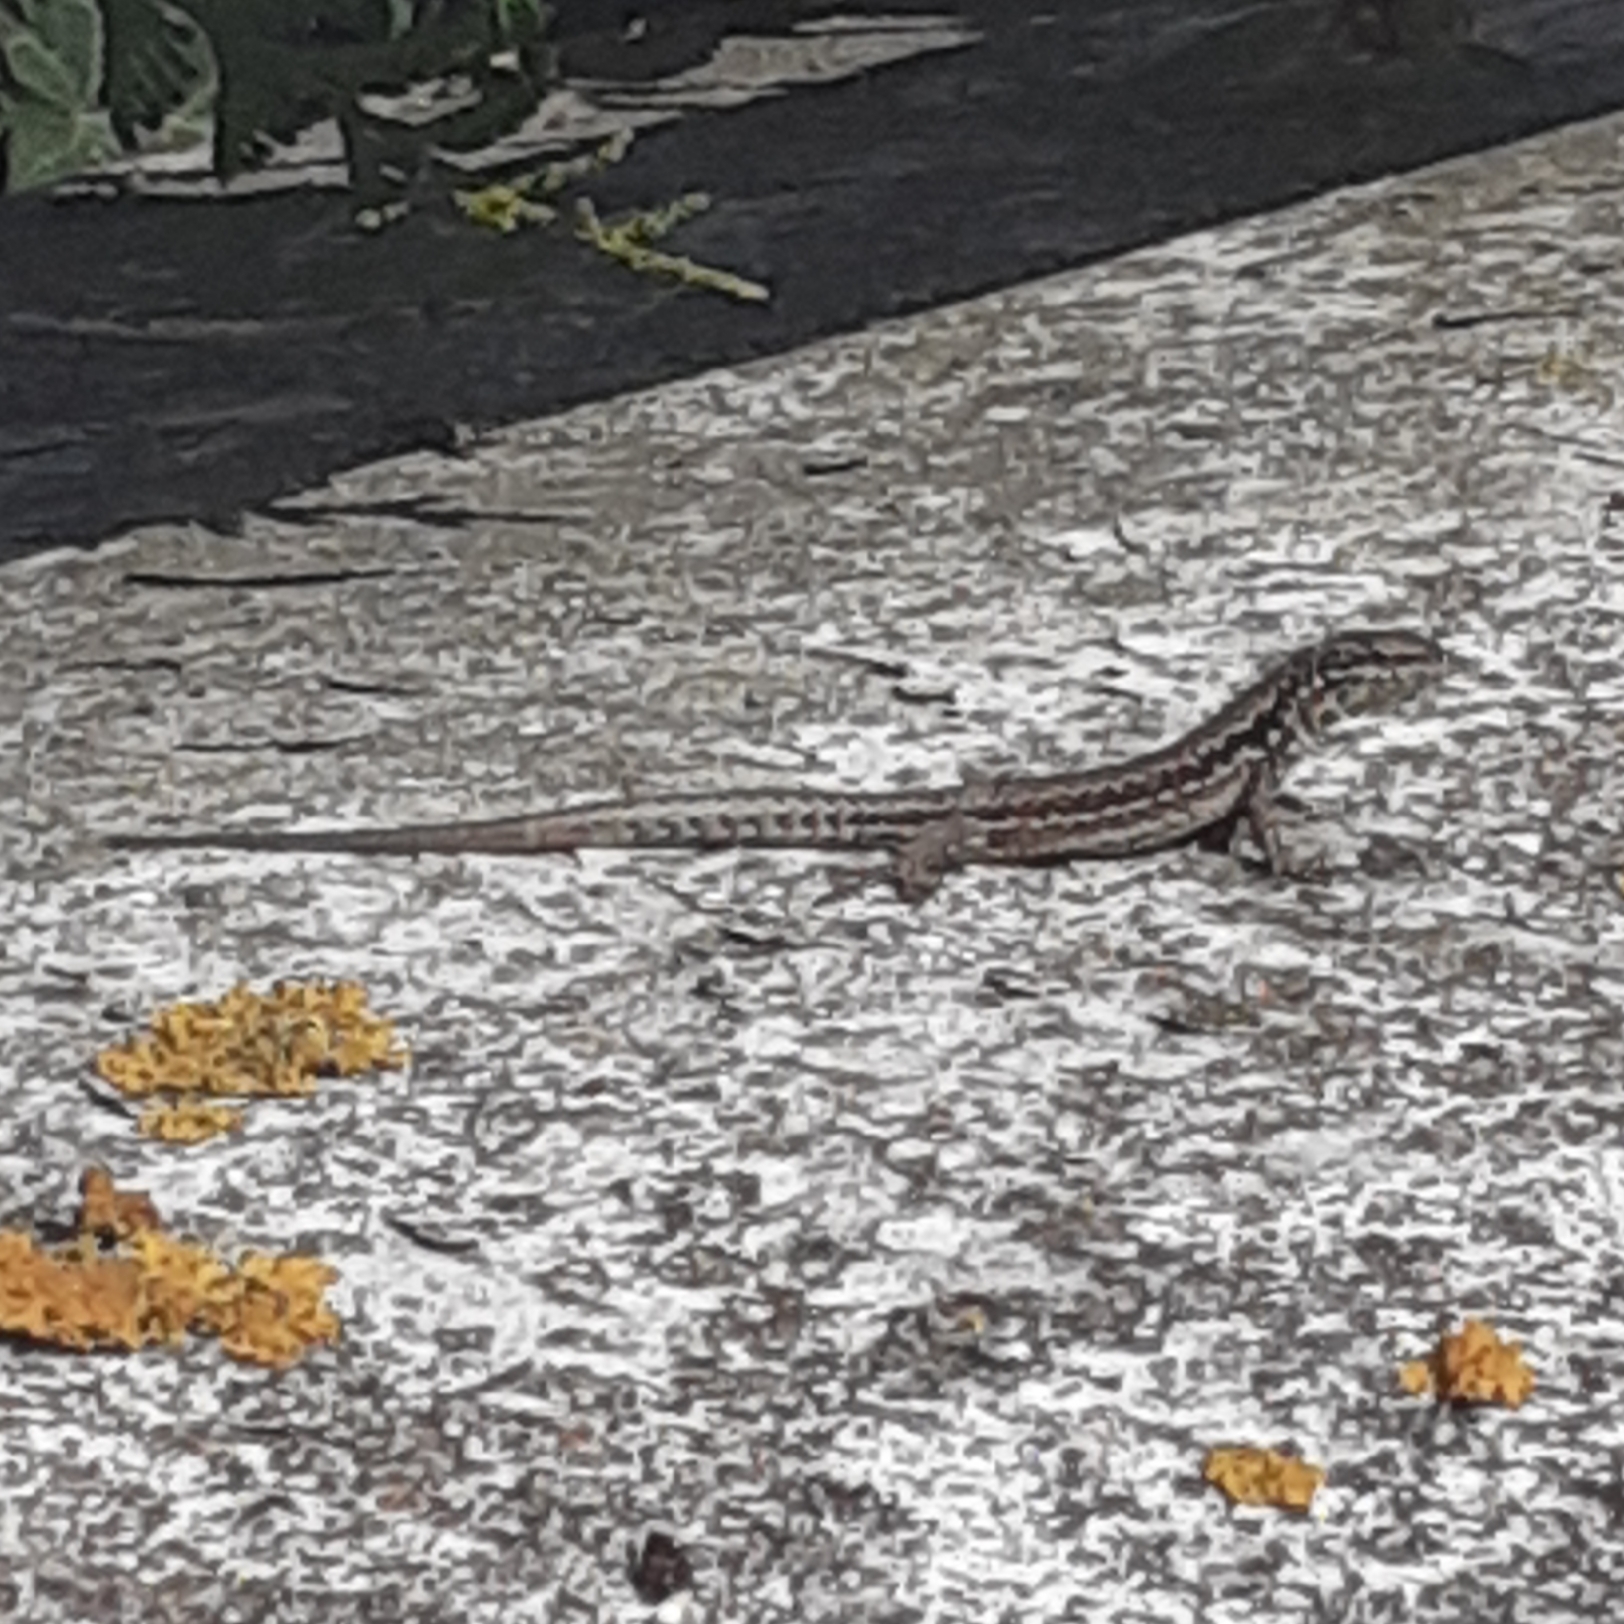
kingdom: Animalia
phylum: Chordata
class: Squamata
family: Lacertidae
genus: Podarcis
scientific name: Podarcis muralis
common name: Common wall lizard
